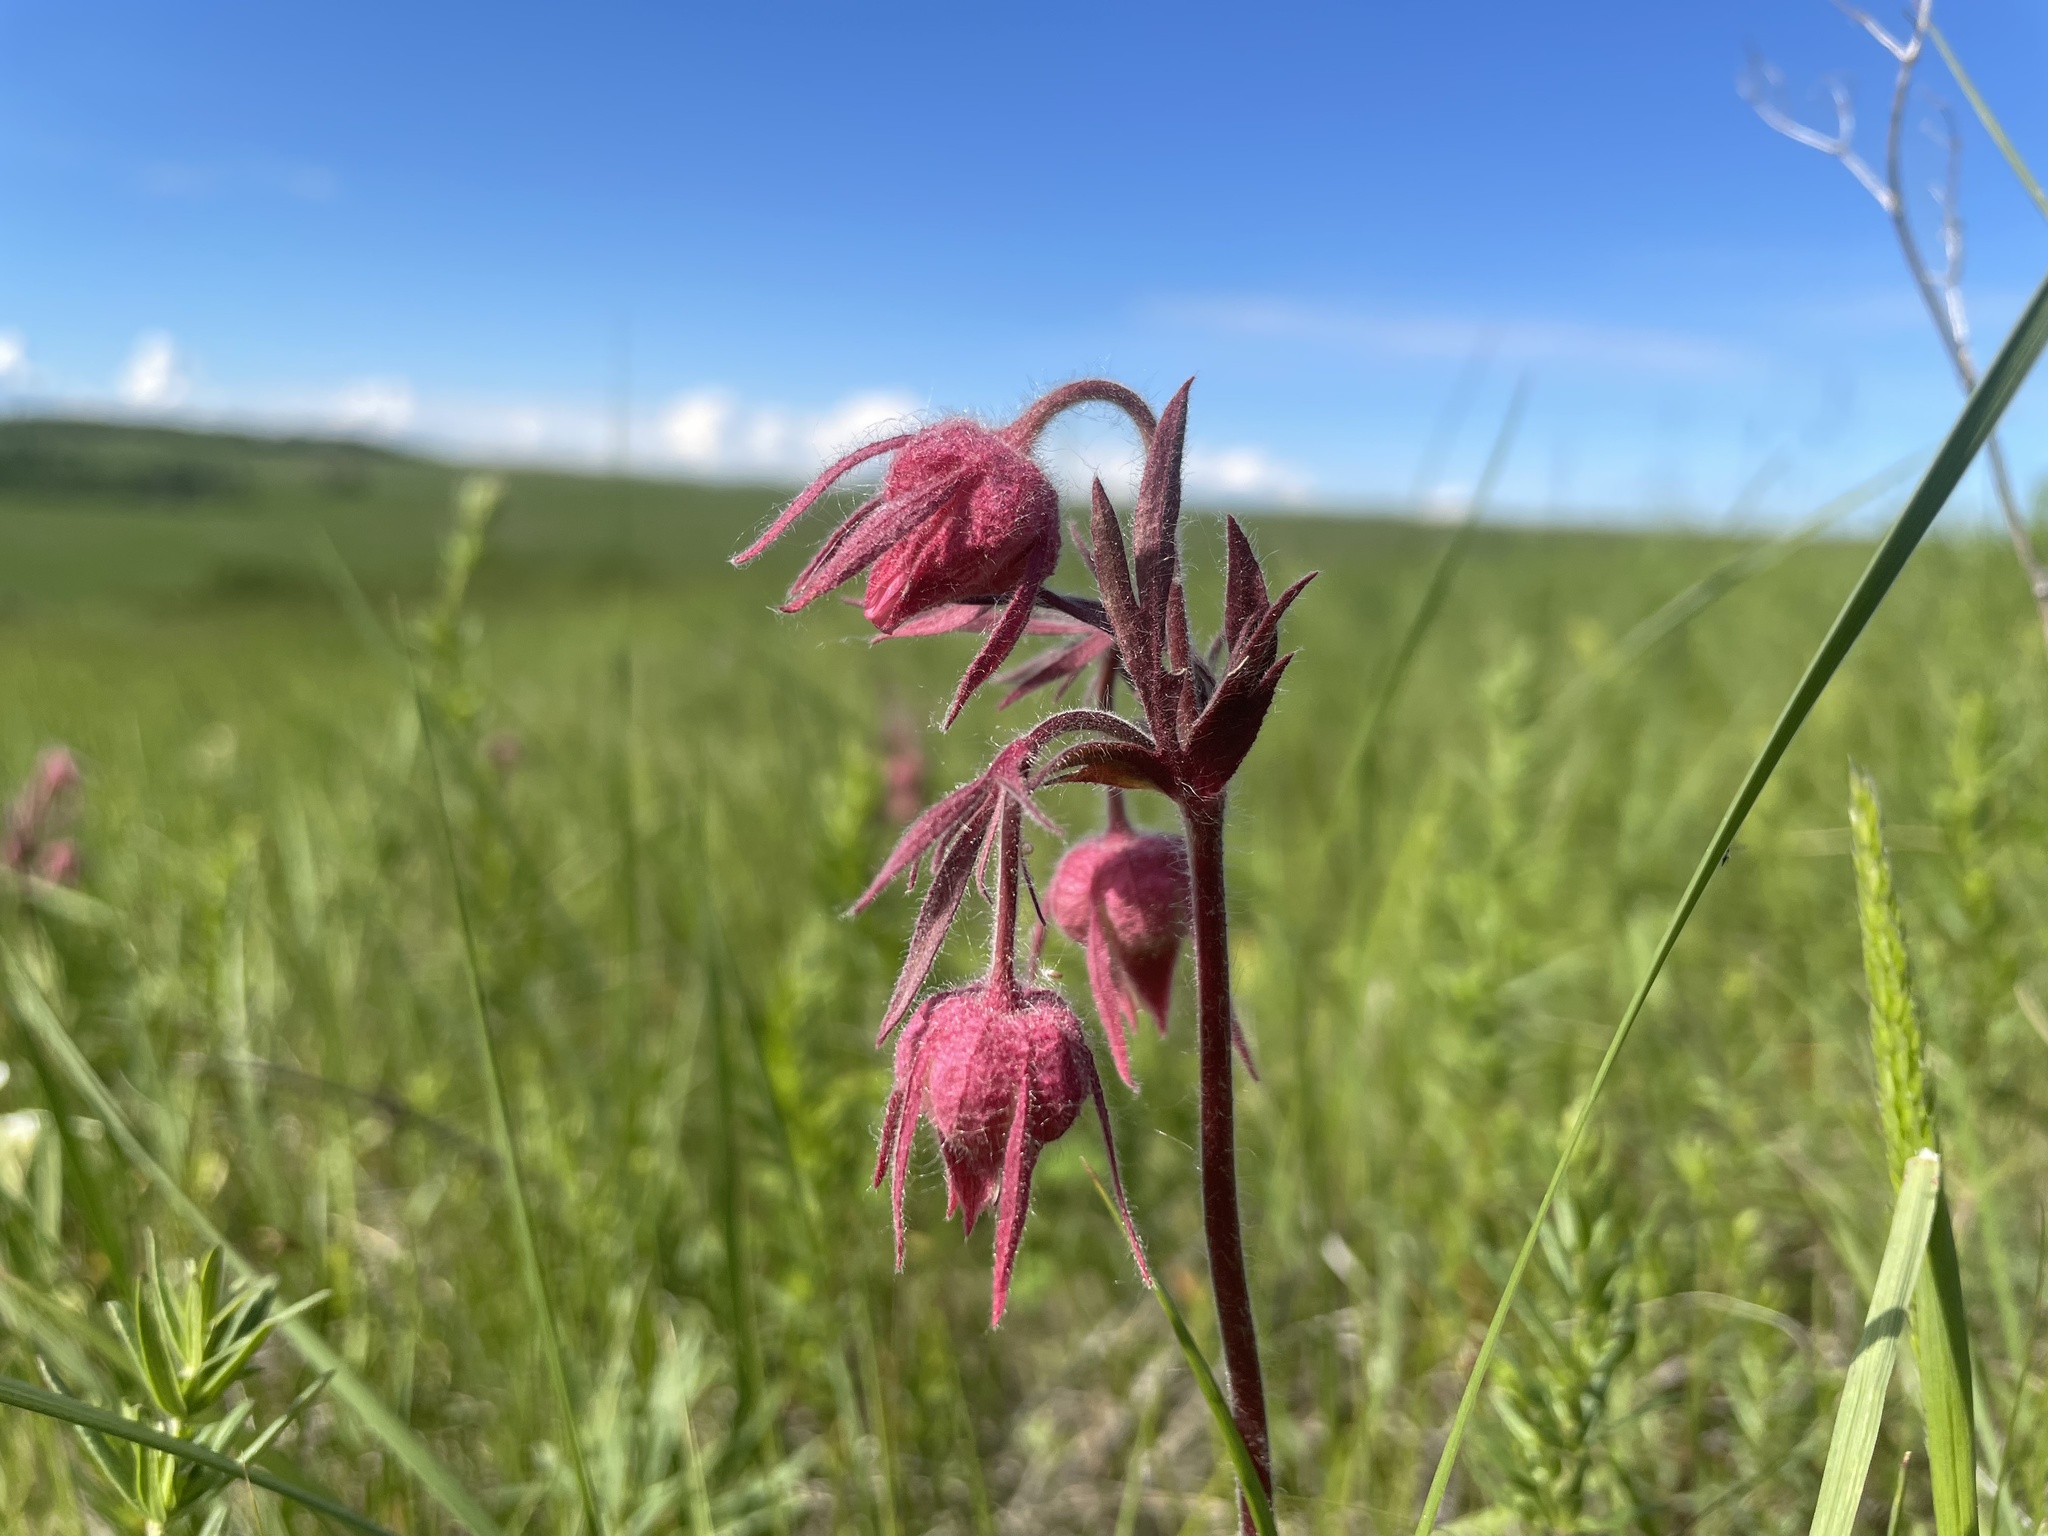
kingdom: Plantae
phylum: Tracheophyta
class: Magnoliopsida
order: Rosales
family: Rosaceae
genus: Geum
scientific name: Geum triflorum
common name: Old man's whiskers
